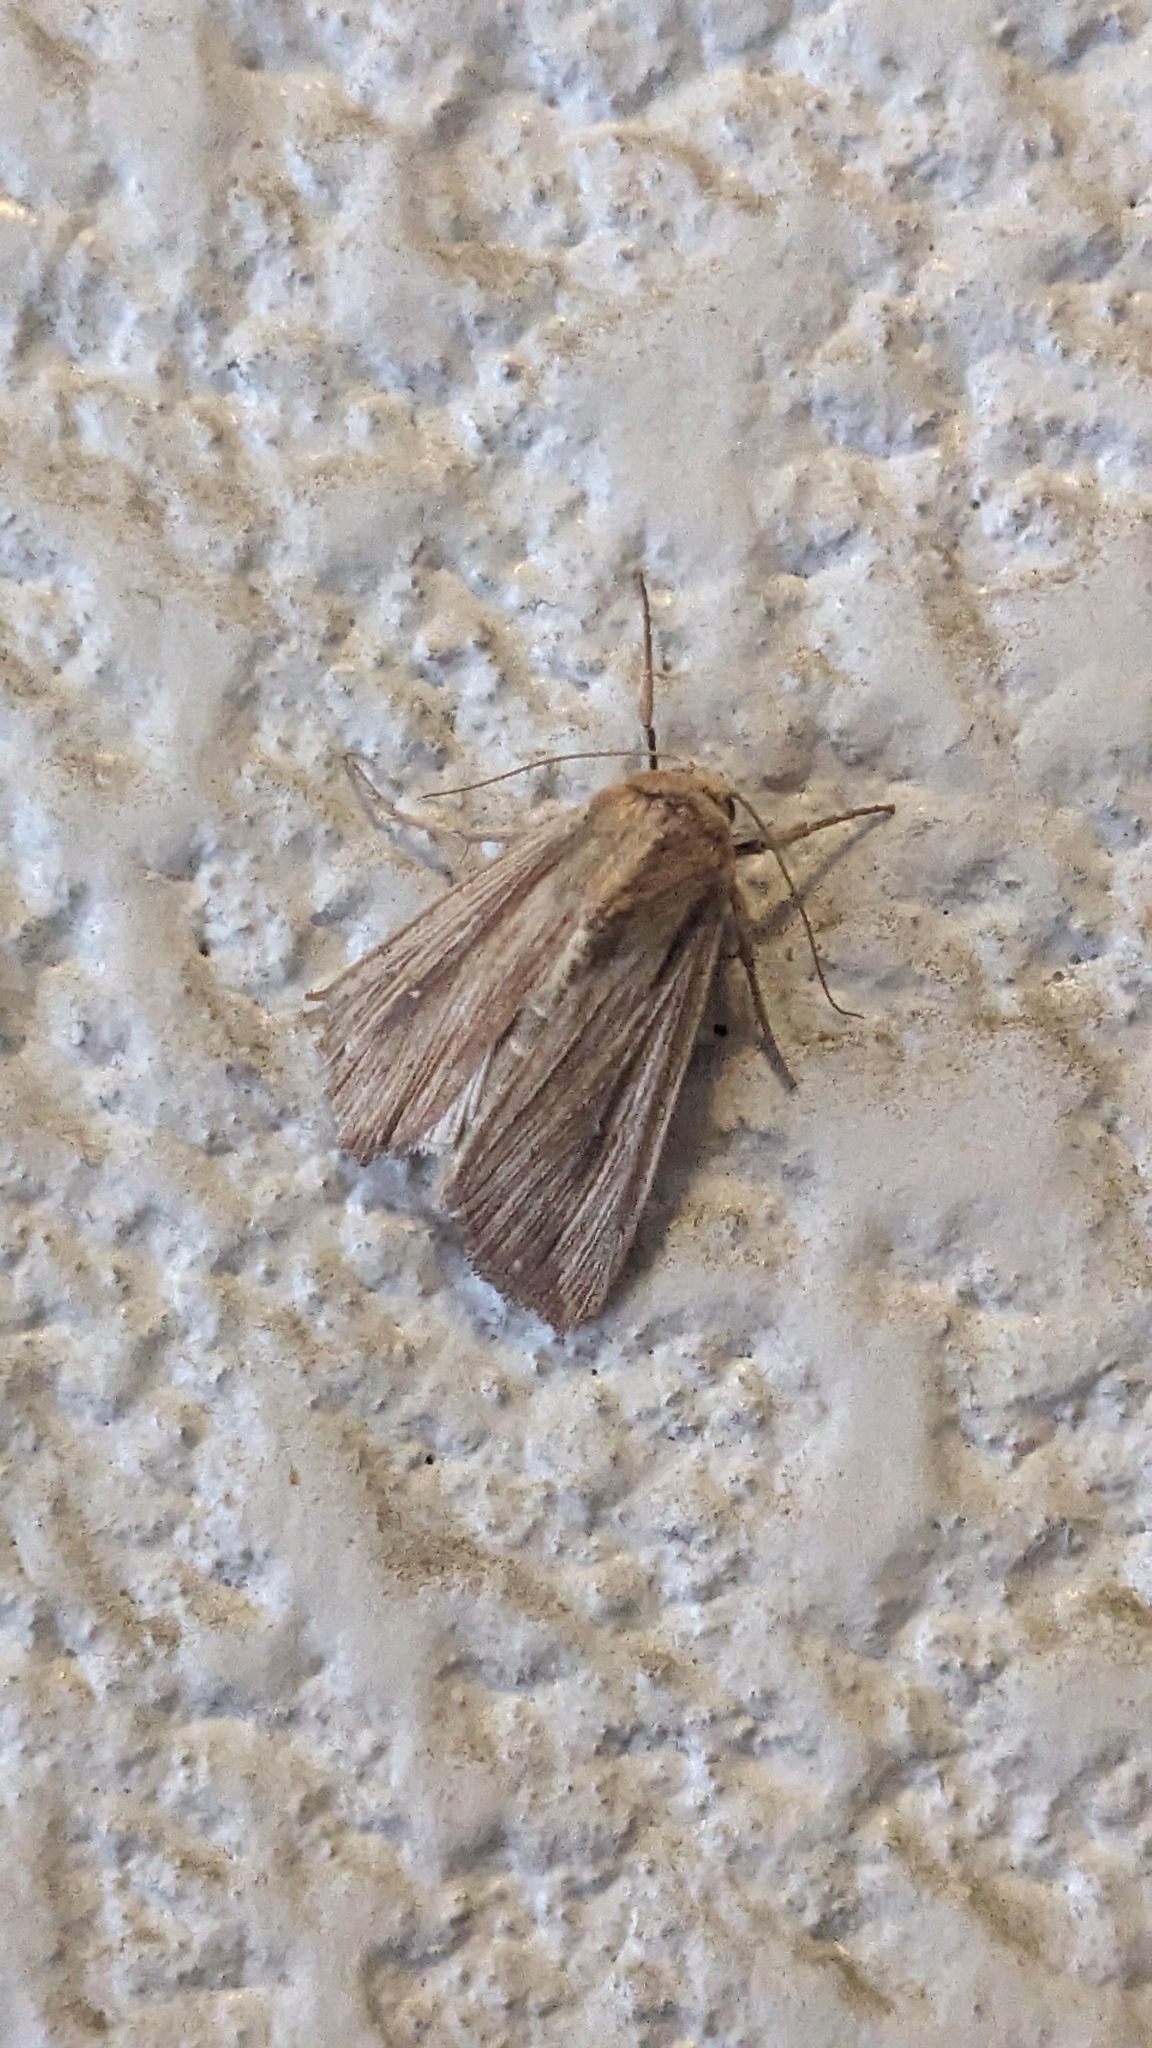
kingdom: Animalia
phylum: Arthropoda
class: Insecta
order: Lepidoptera
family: Noctuidae
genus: Leucania
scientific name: Leucania loreyi
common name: The cosmopolitan
